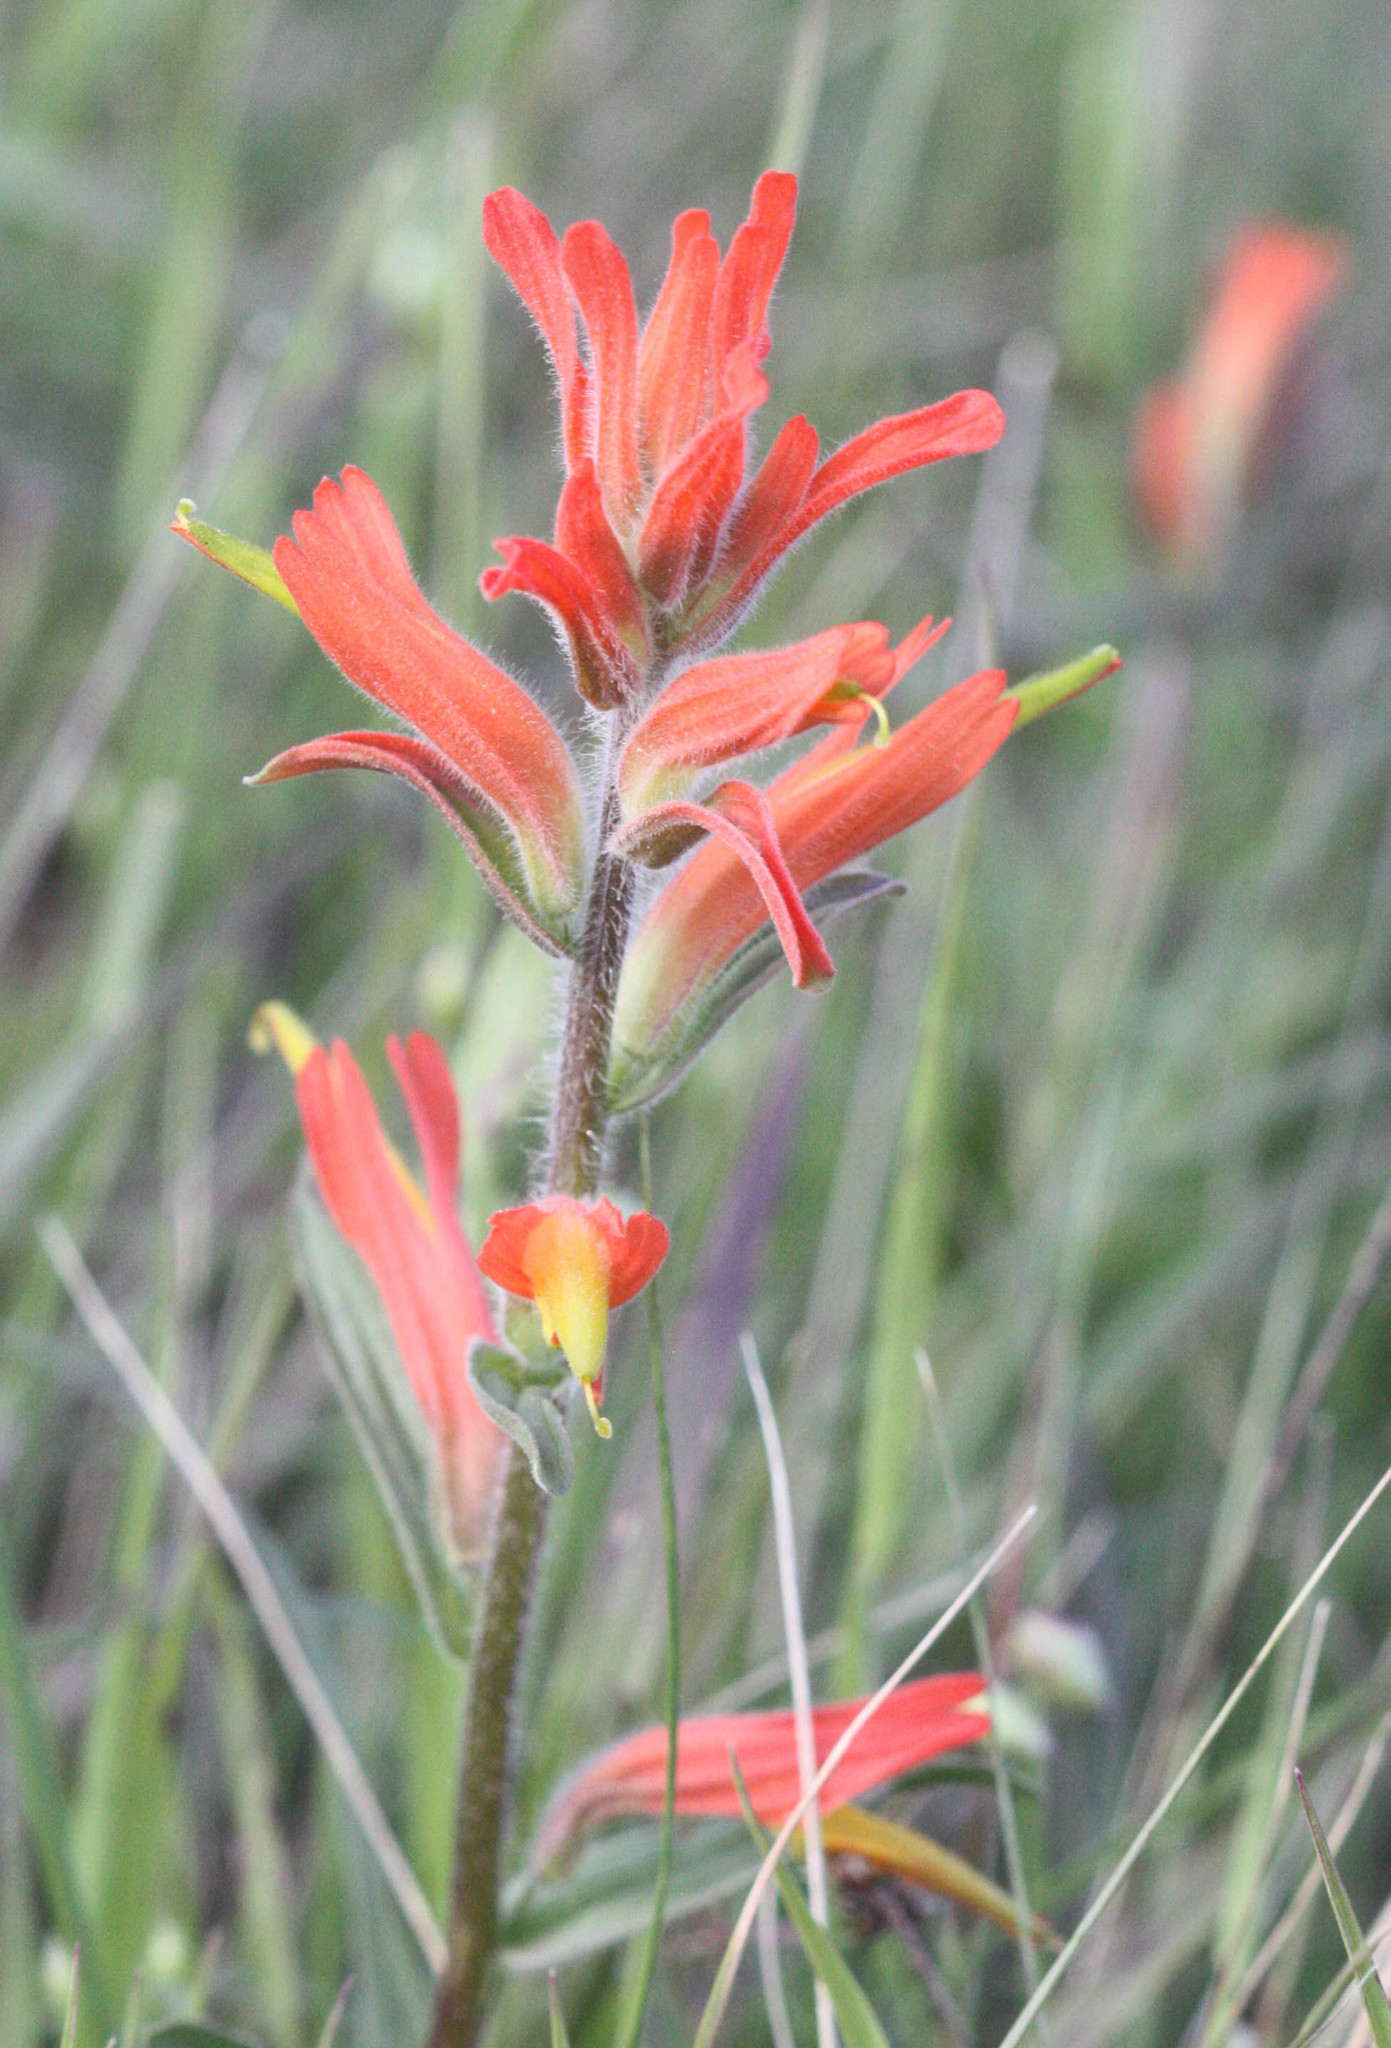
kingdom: Plantae
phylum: Tracheophyta
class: Magnoliopsida
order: Lamiales
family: Orobanchaceae
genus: Castilleja
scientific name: Castilleja subinclusa
